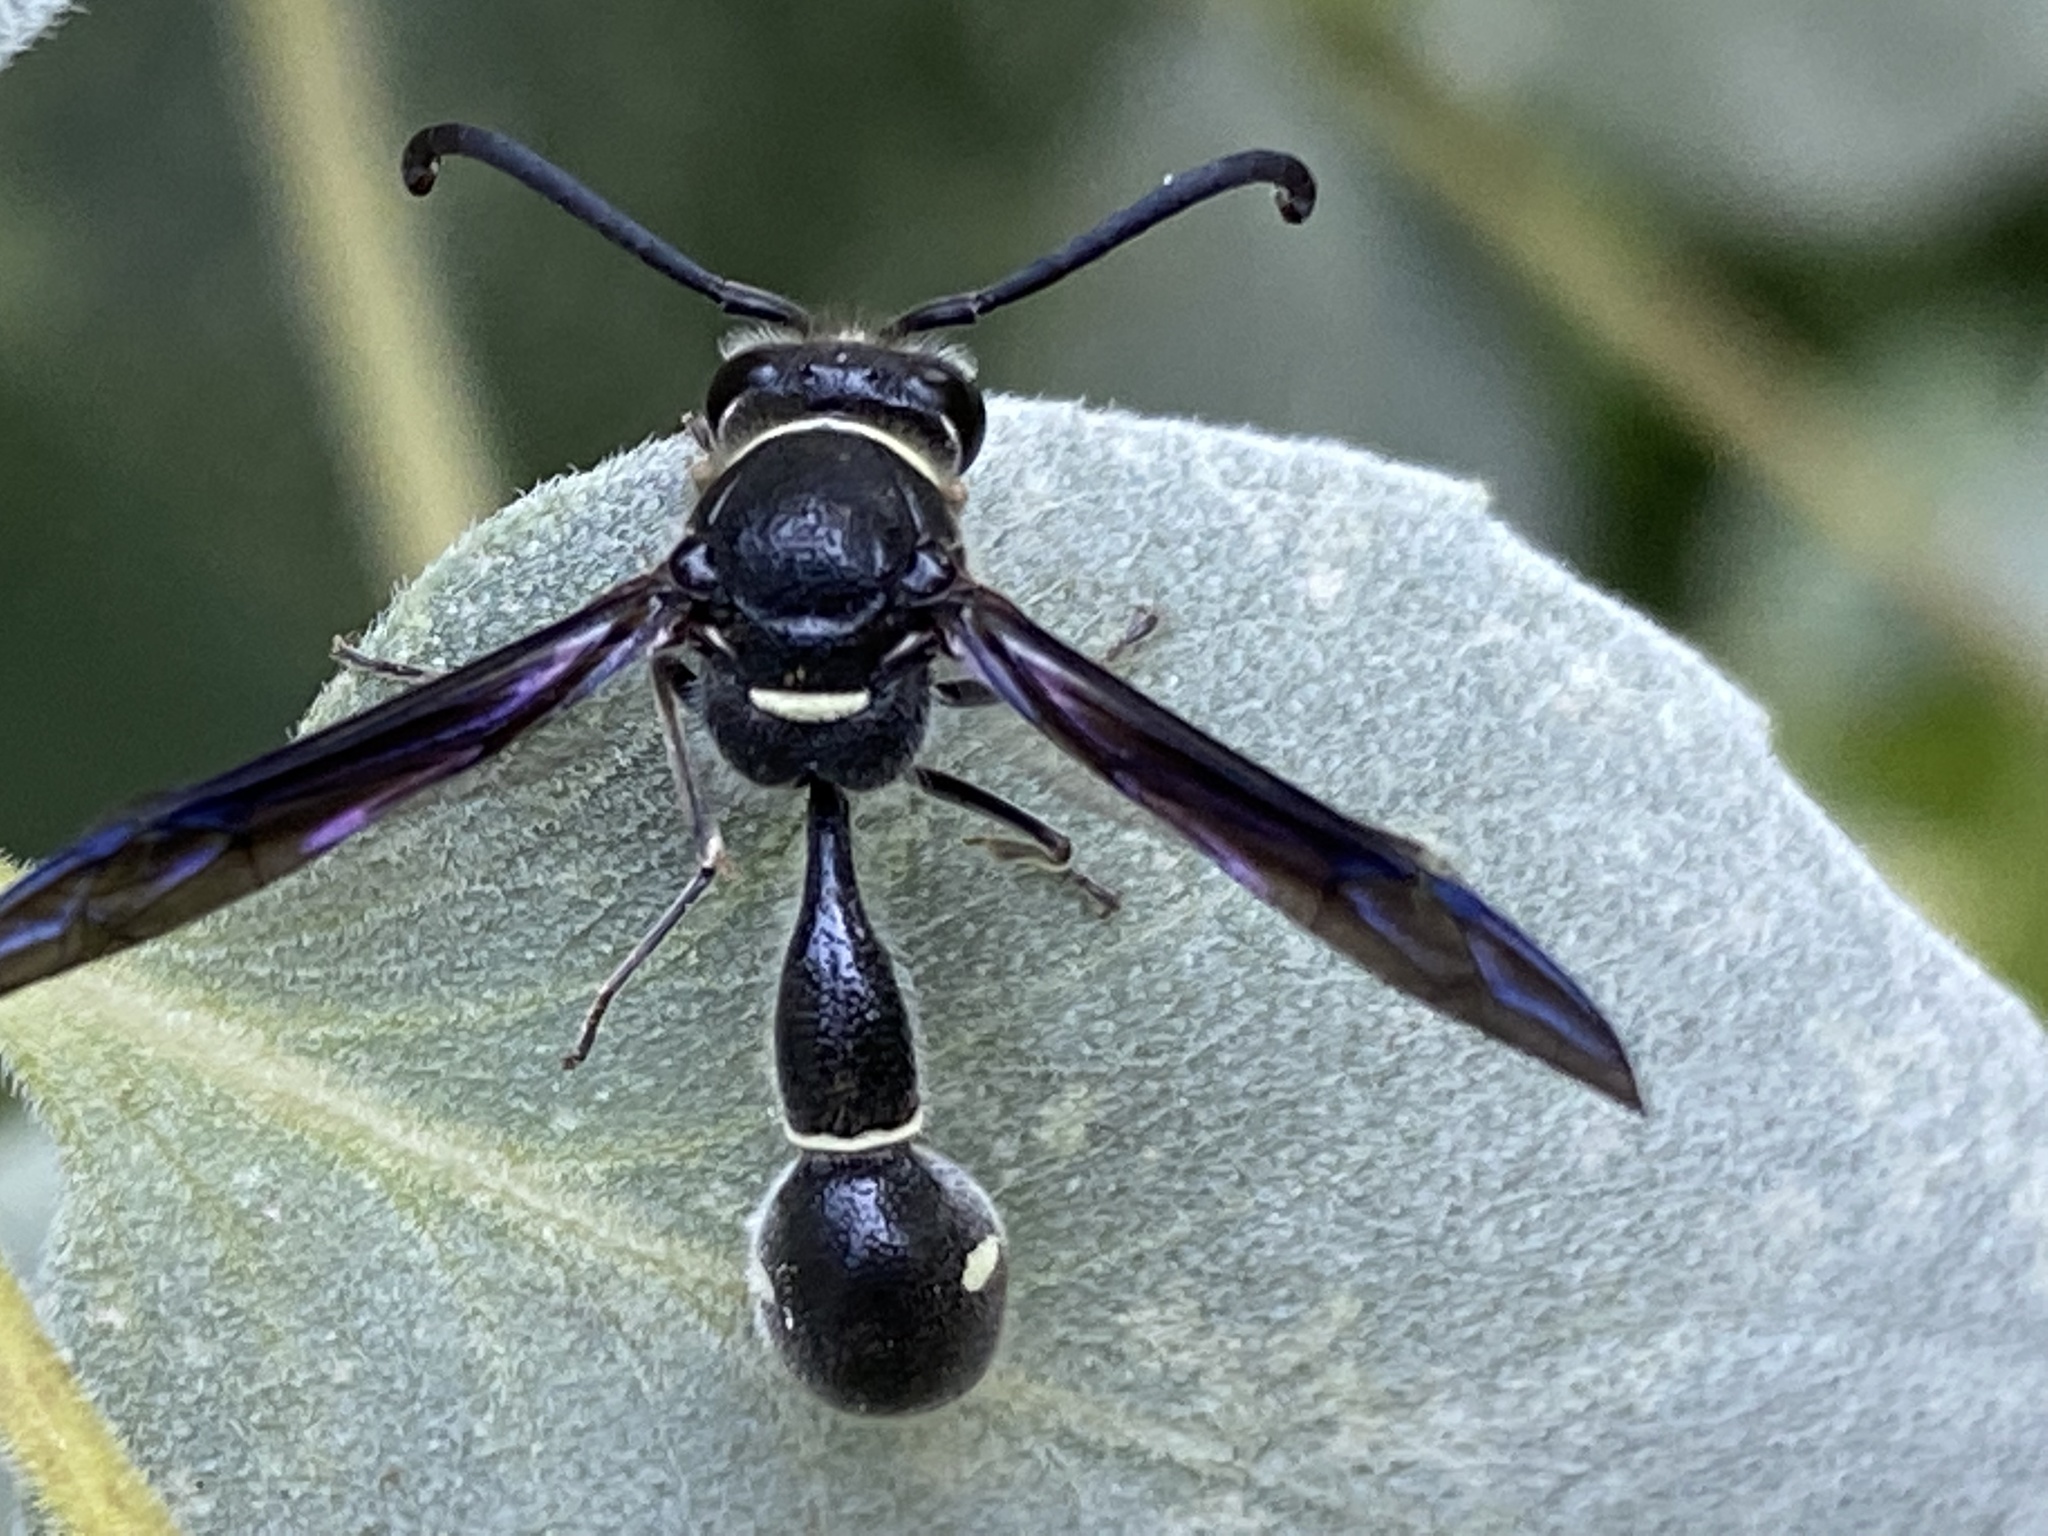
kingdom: Animalia
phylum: Arthropoda
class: Insecta
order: Hymenoptera
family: Vespidae
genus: Eumenes
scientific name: Eumenes fraternus
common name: Fraternal potter wasp
